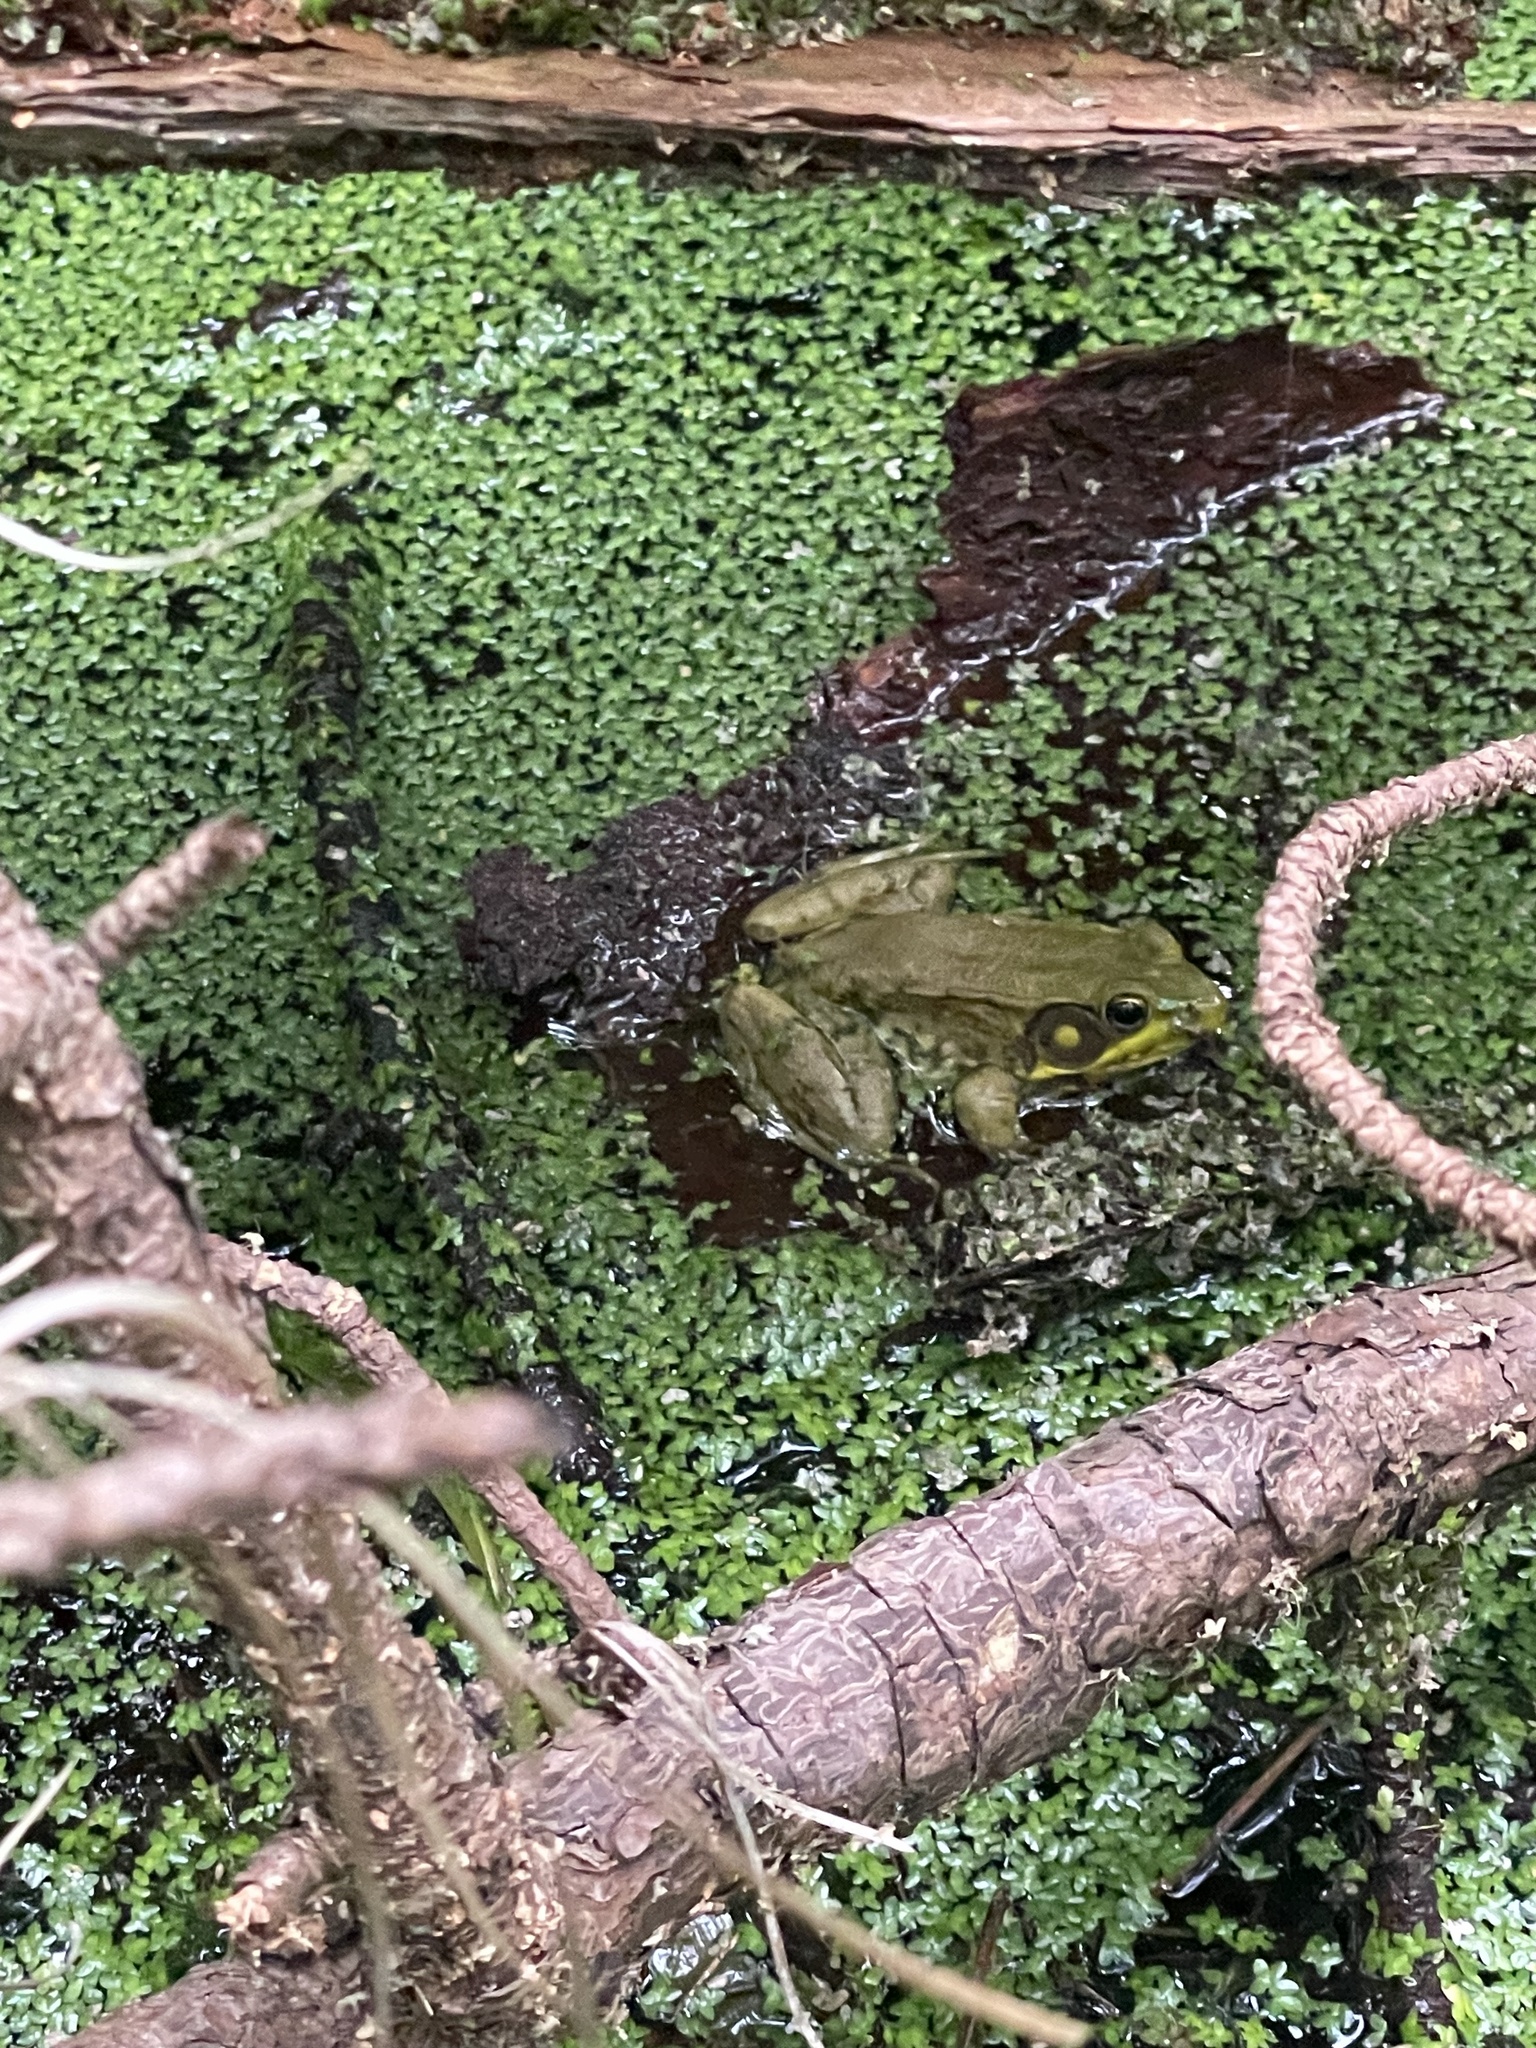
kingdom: Animalia
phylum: Chordata
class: Amphibia
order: Anura
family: Ranidae
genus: Lithobates
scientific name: Lithobates clamitans
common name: Green frog
